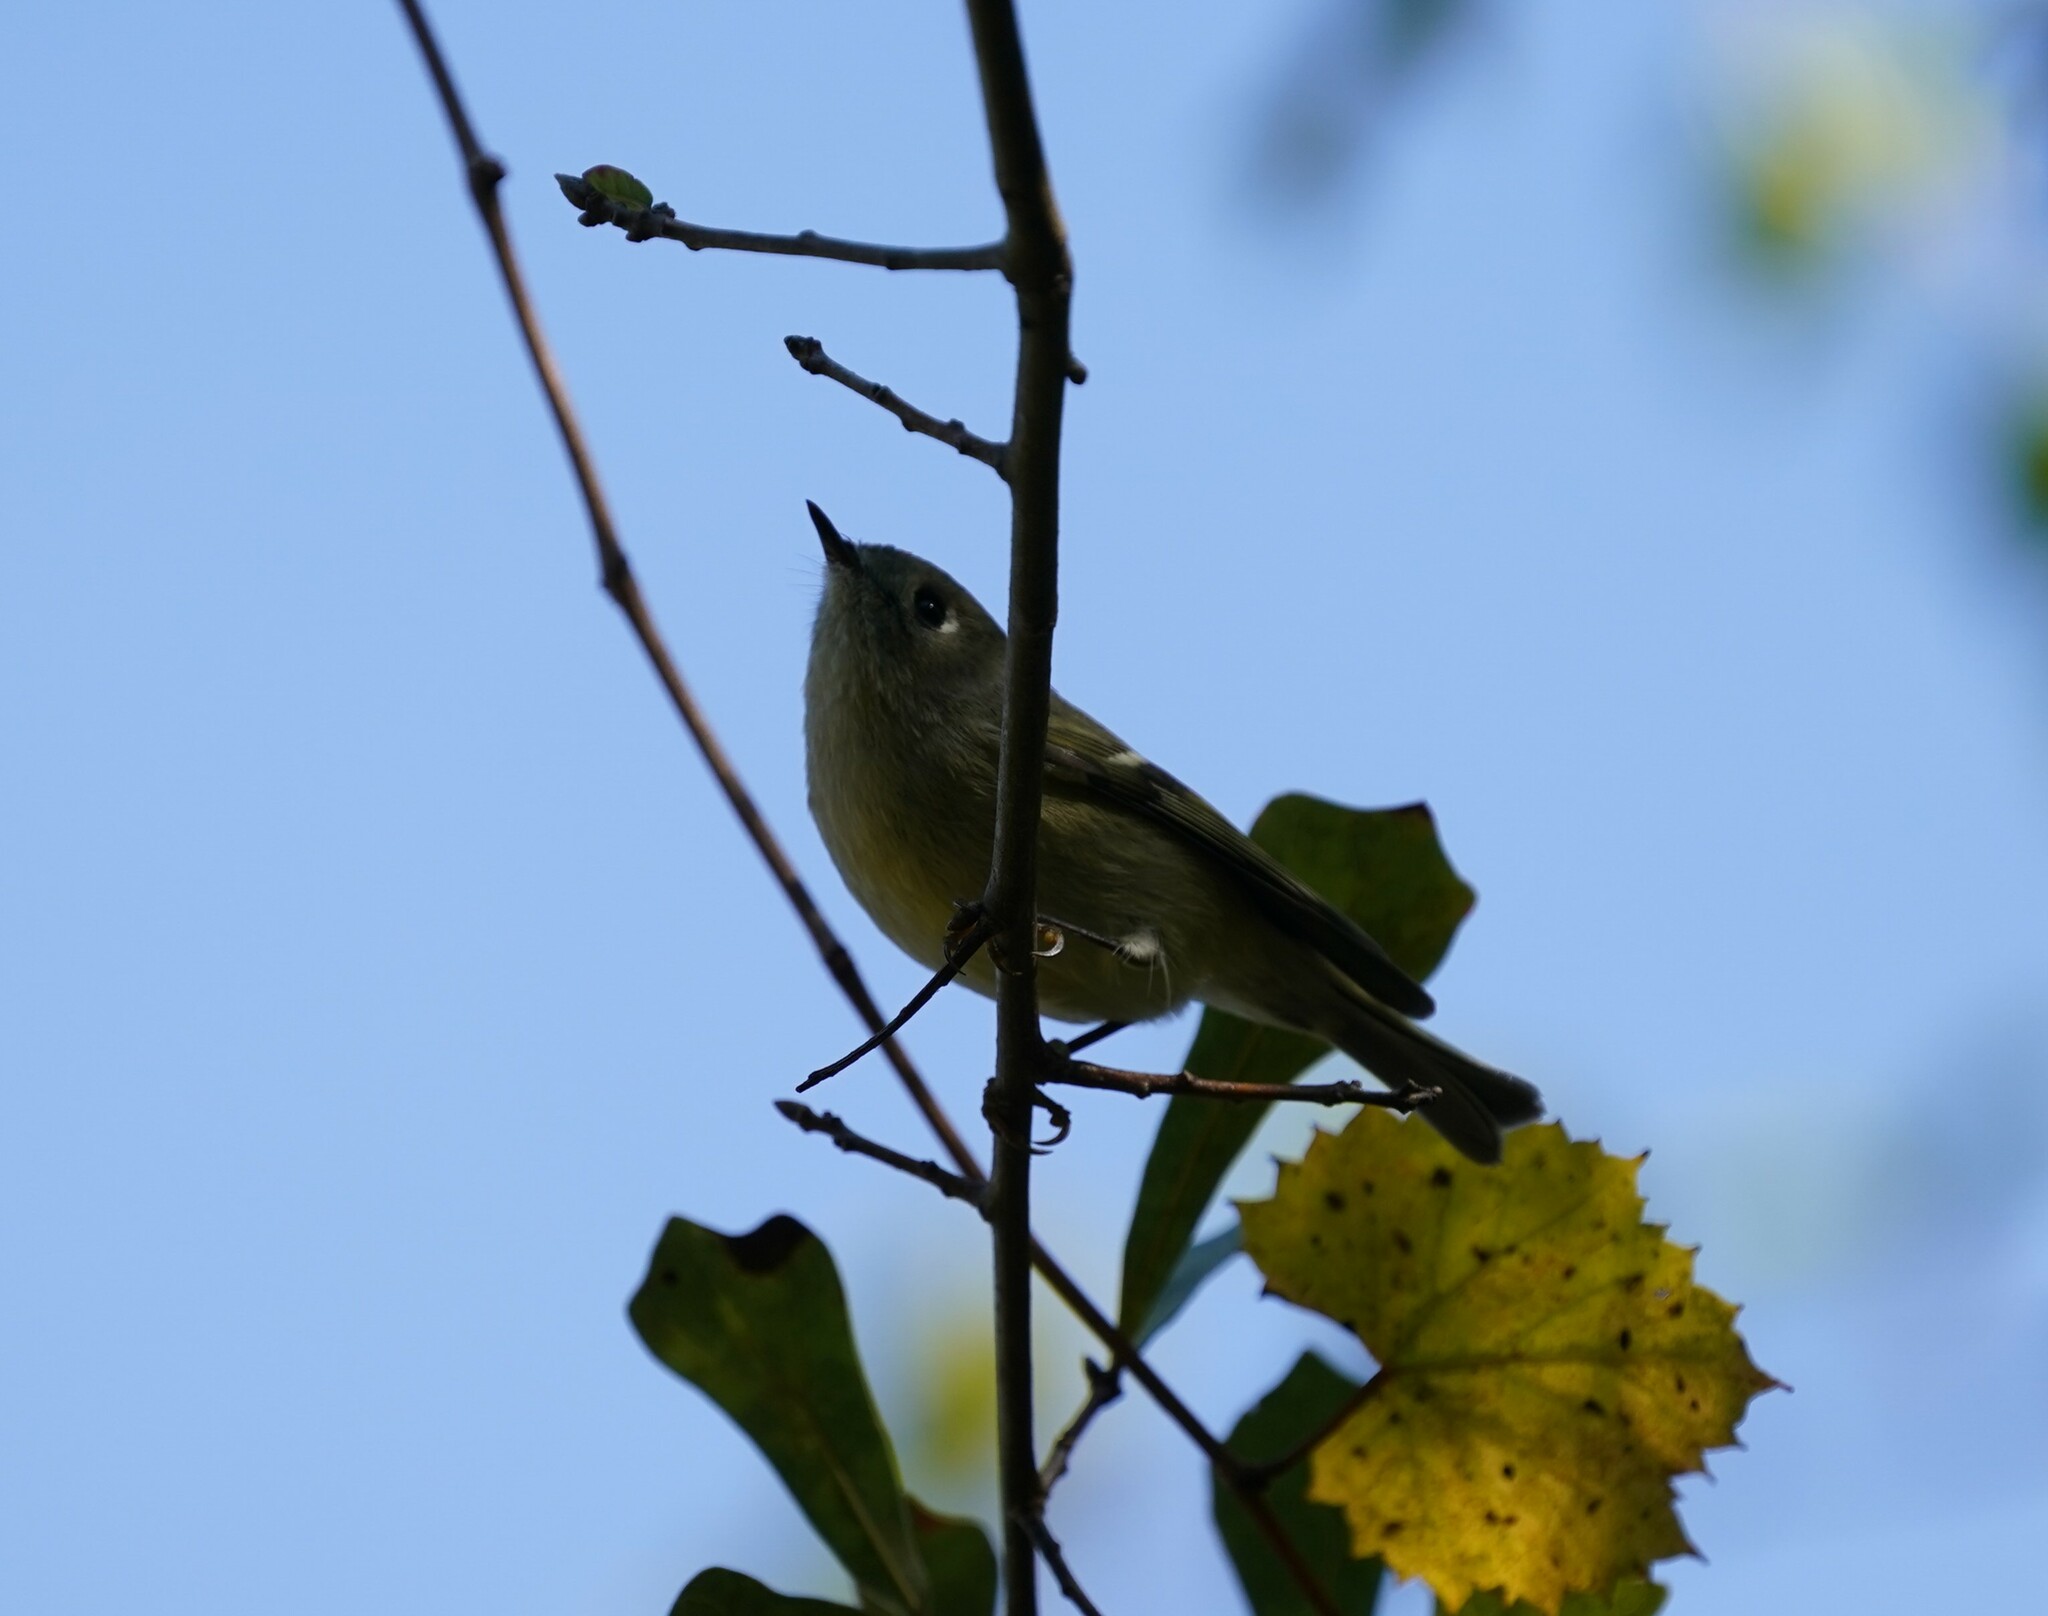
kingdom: Animalia
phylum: Chordata
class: Aves
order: Passeriformes
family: Regulidae
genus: Regulus
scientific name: Regulus calendula
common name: Ruby-crowned kinglet
